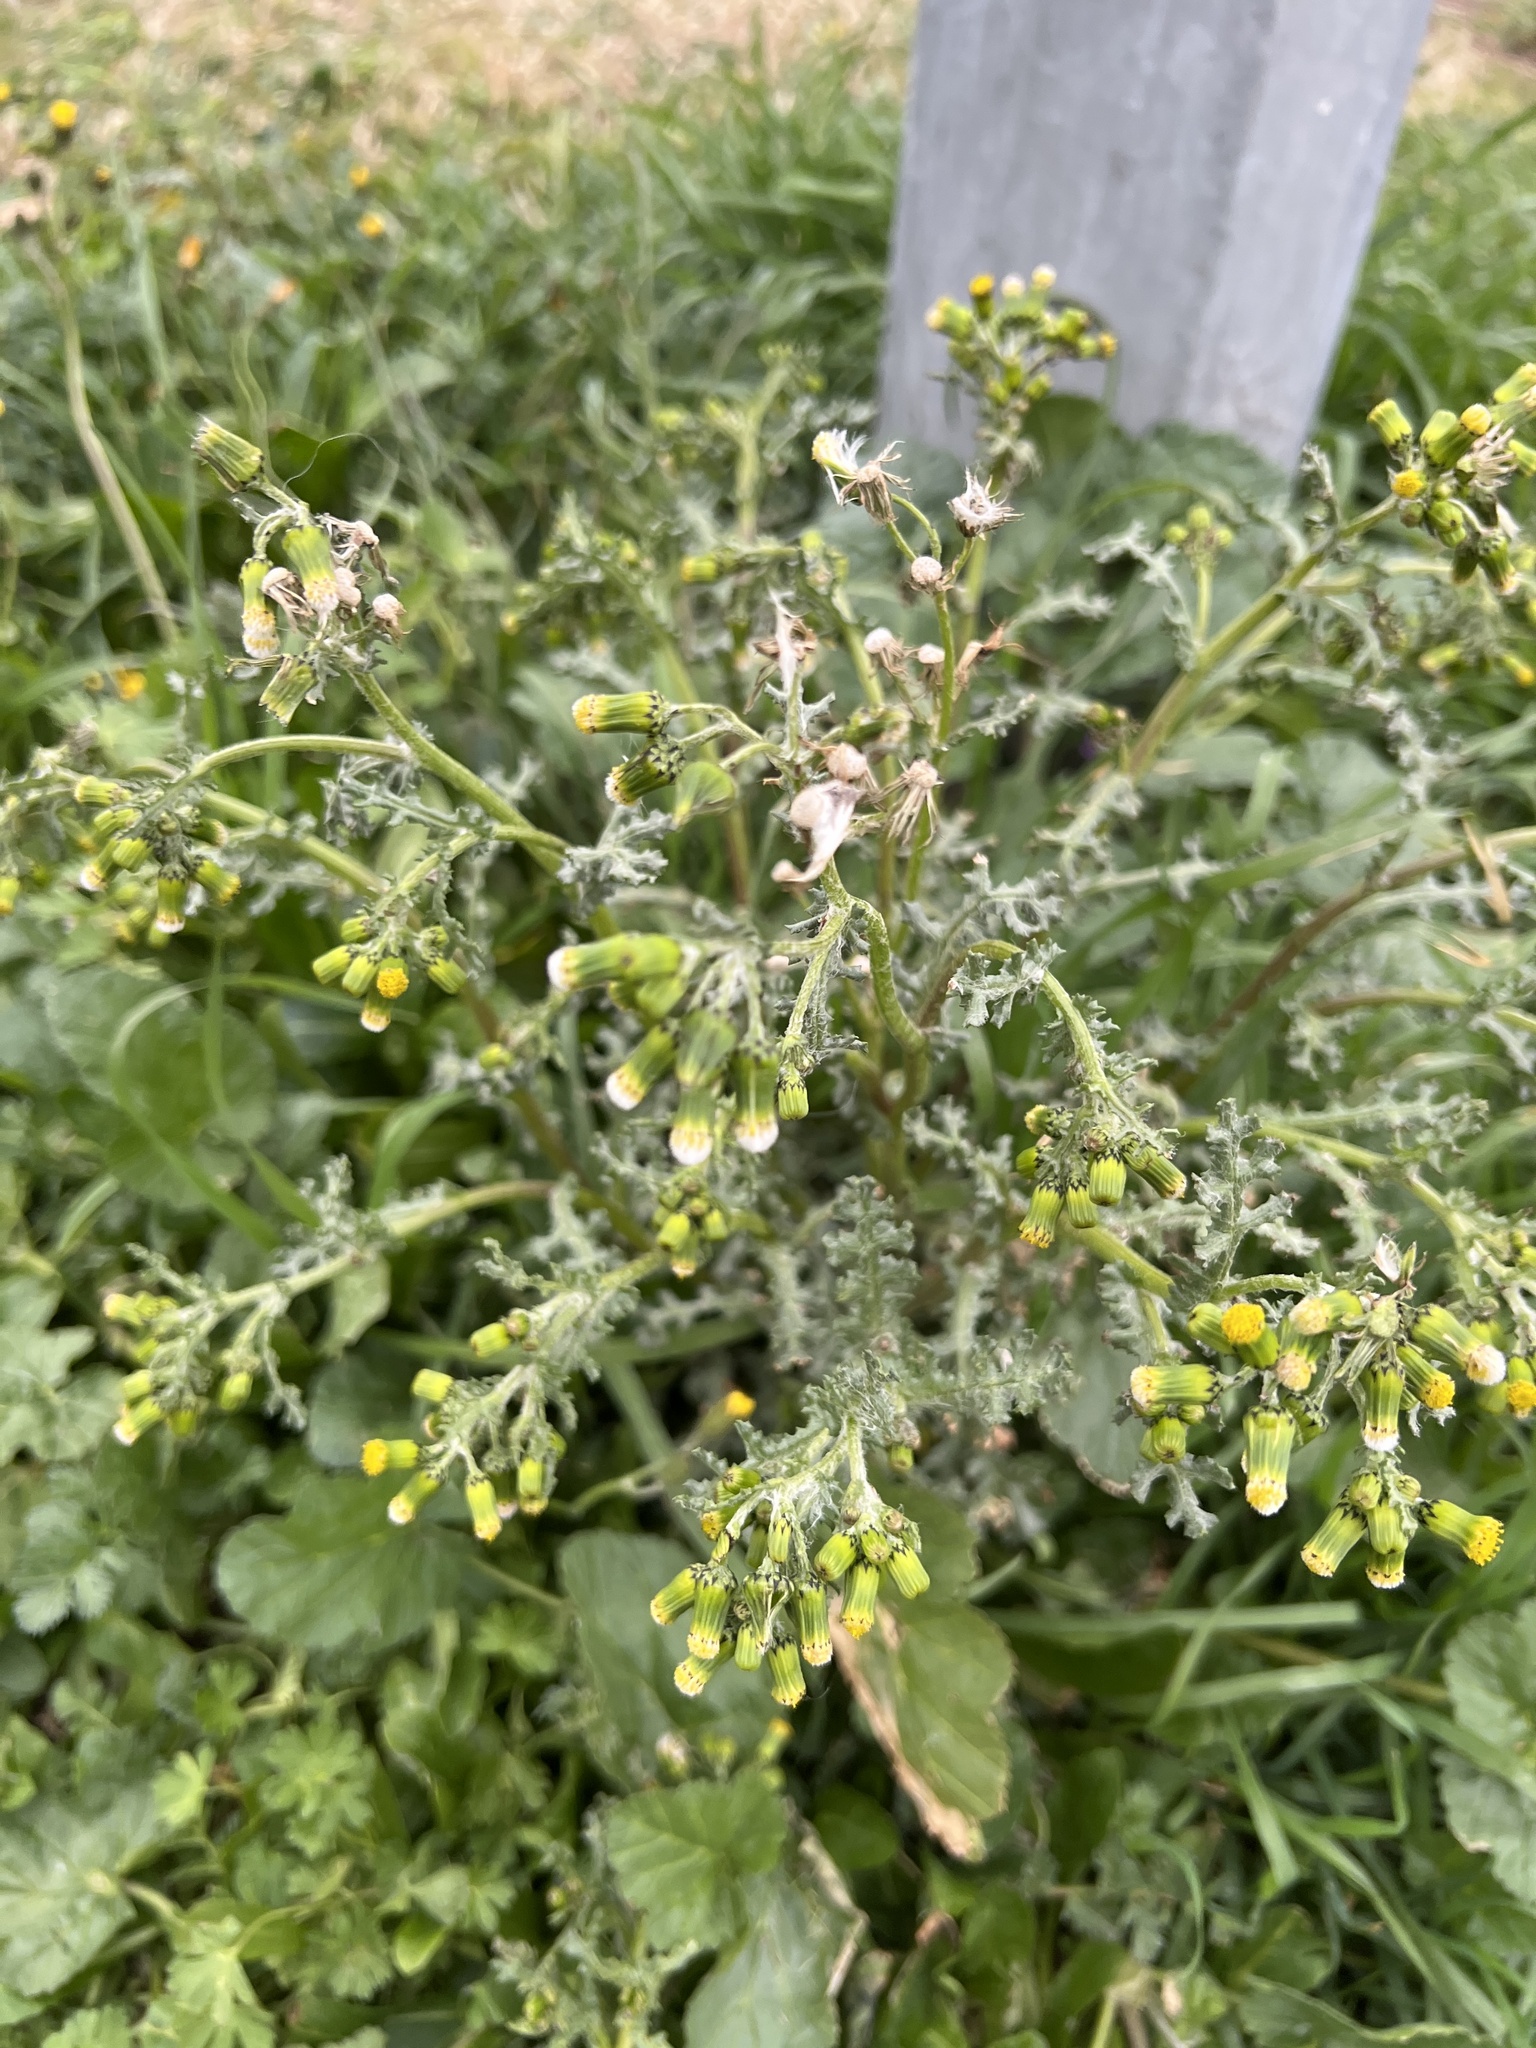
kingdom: Plantae
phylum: Tracheophyta
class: Magnoliopsida
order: Asterales
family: Asteraceae
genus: Senecio
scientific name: Senecio vulgaris
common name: Old-man-in-the-spring
